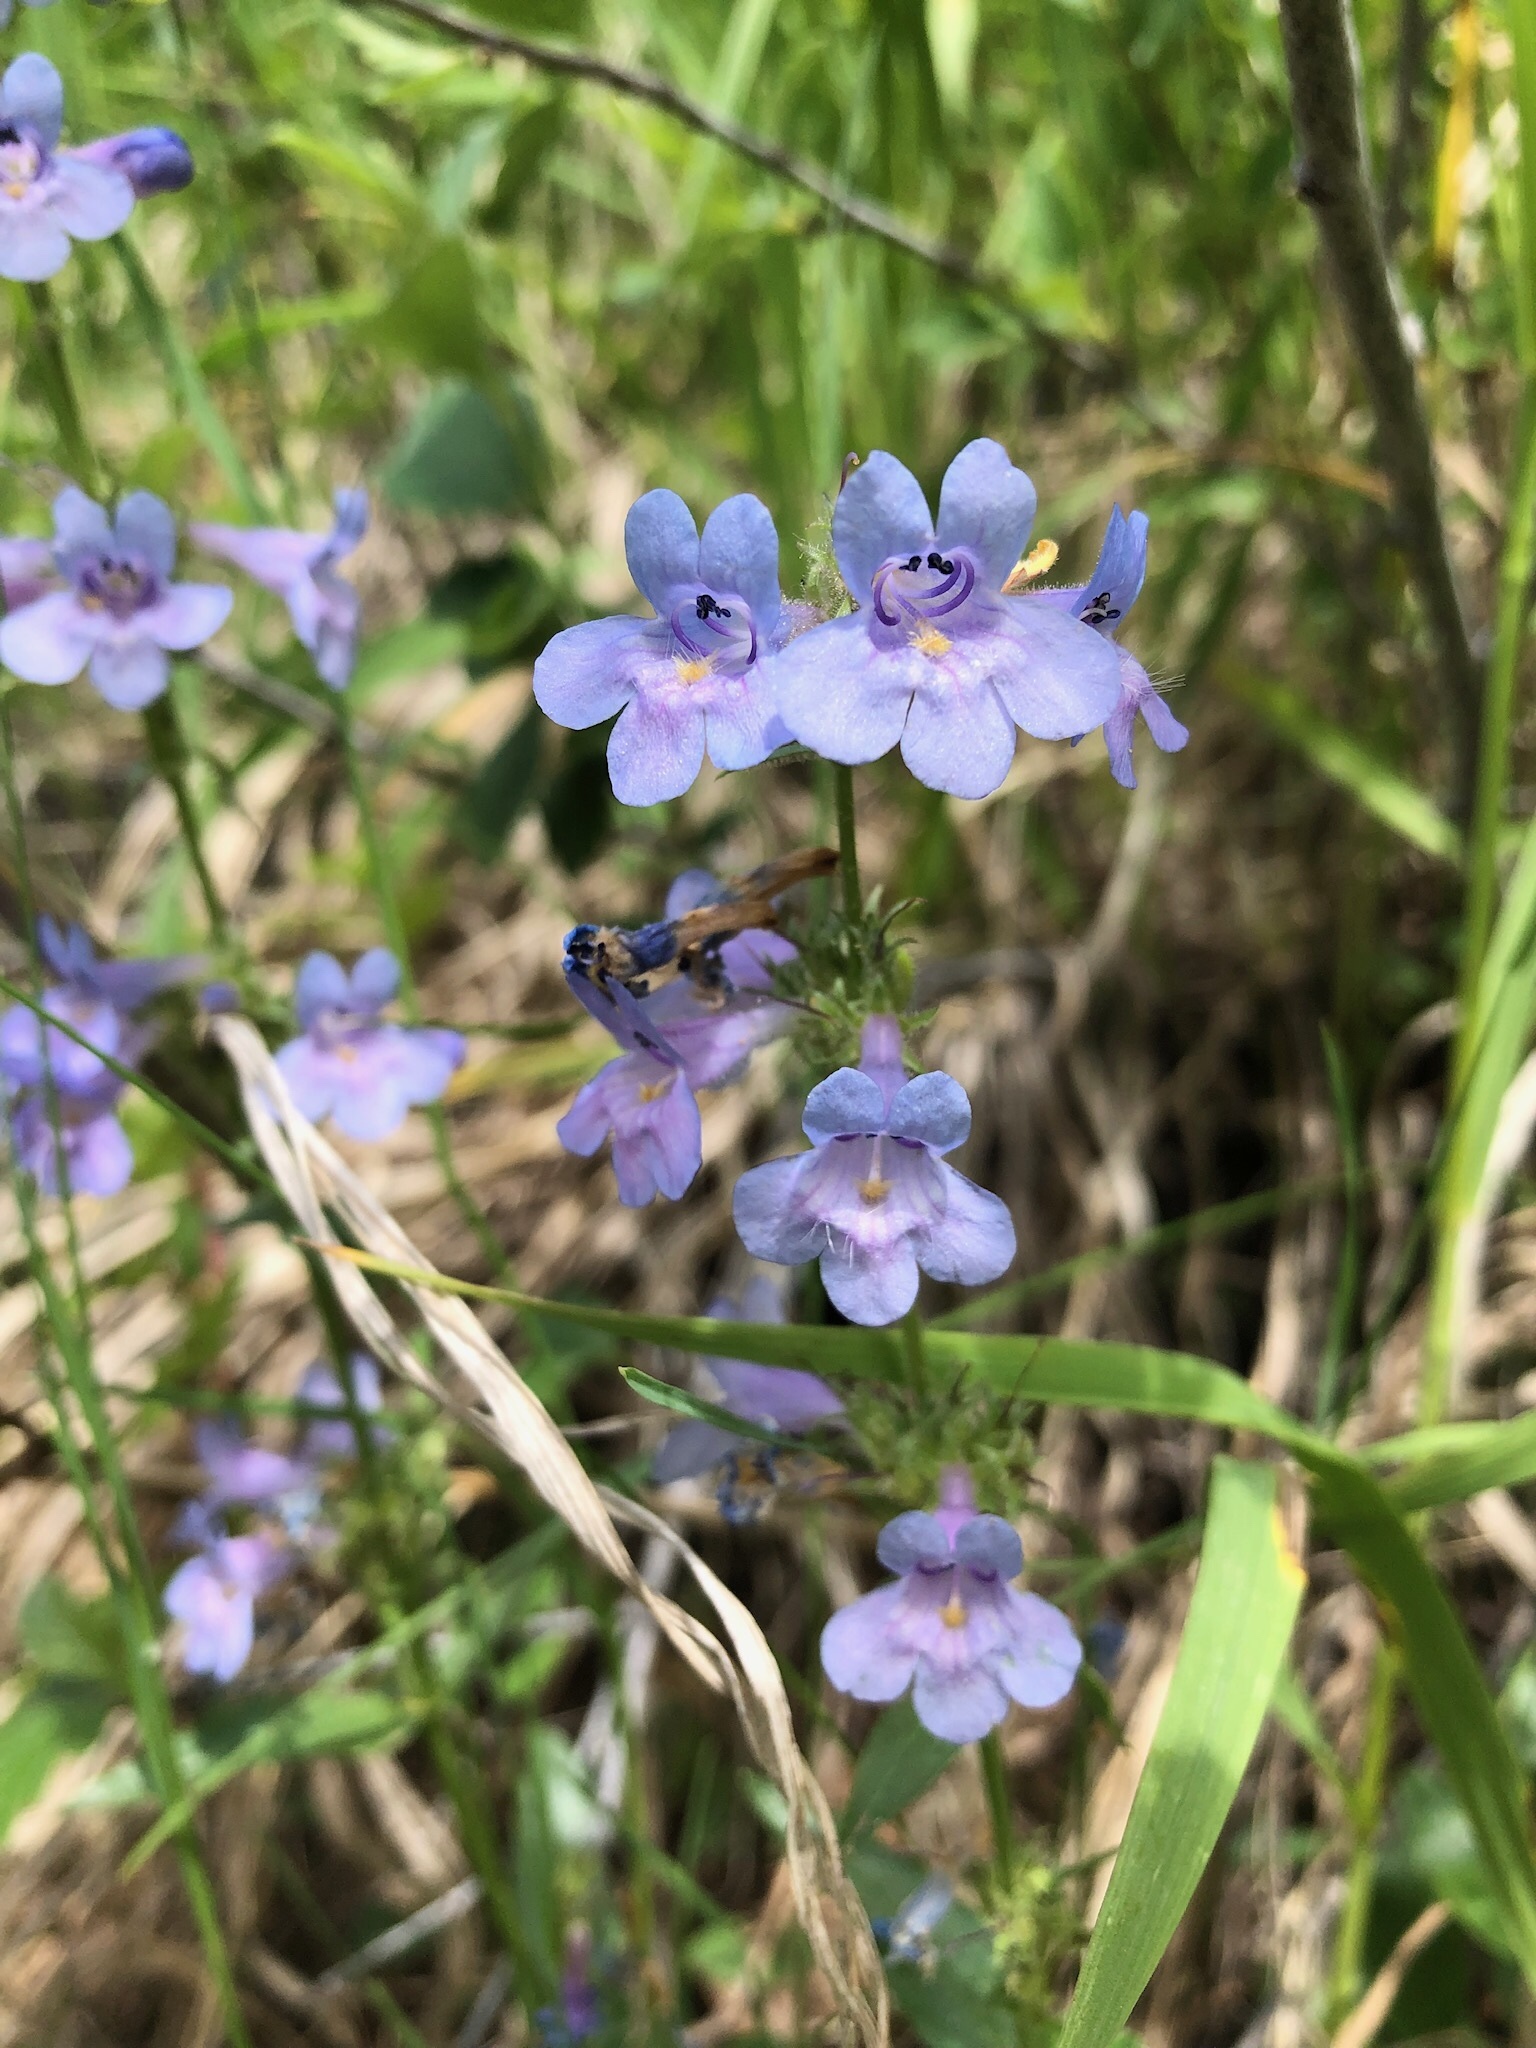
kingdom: Plantae
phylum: Tracheophyta
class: Magnoliopsida
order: Lamiales
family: Plantaginaceae
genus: Penstemon
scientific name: Penstemon virens
